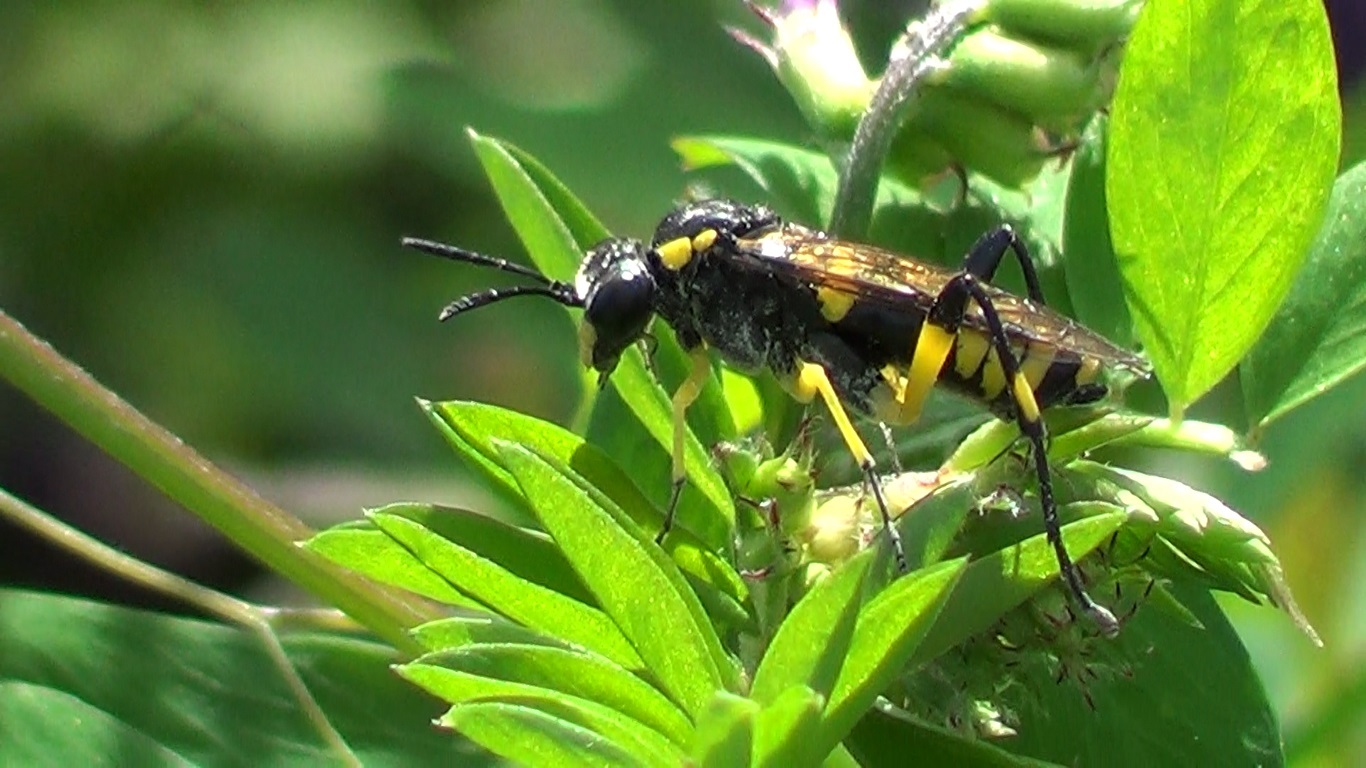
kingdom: Animalia
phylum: Arthropoda
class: Insecta
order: Hymenoptera
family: Tenthredinidae
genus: Macrophya
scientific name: Macrophya montana
